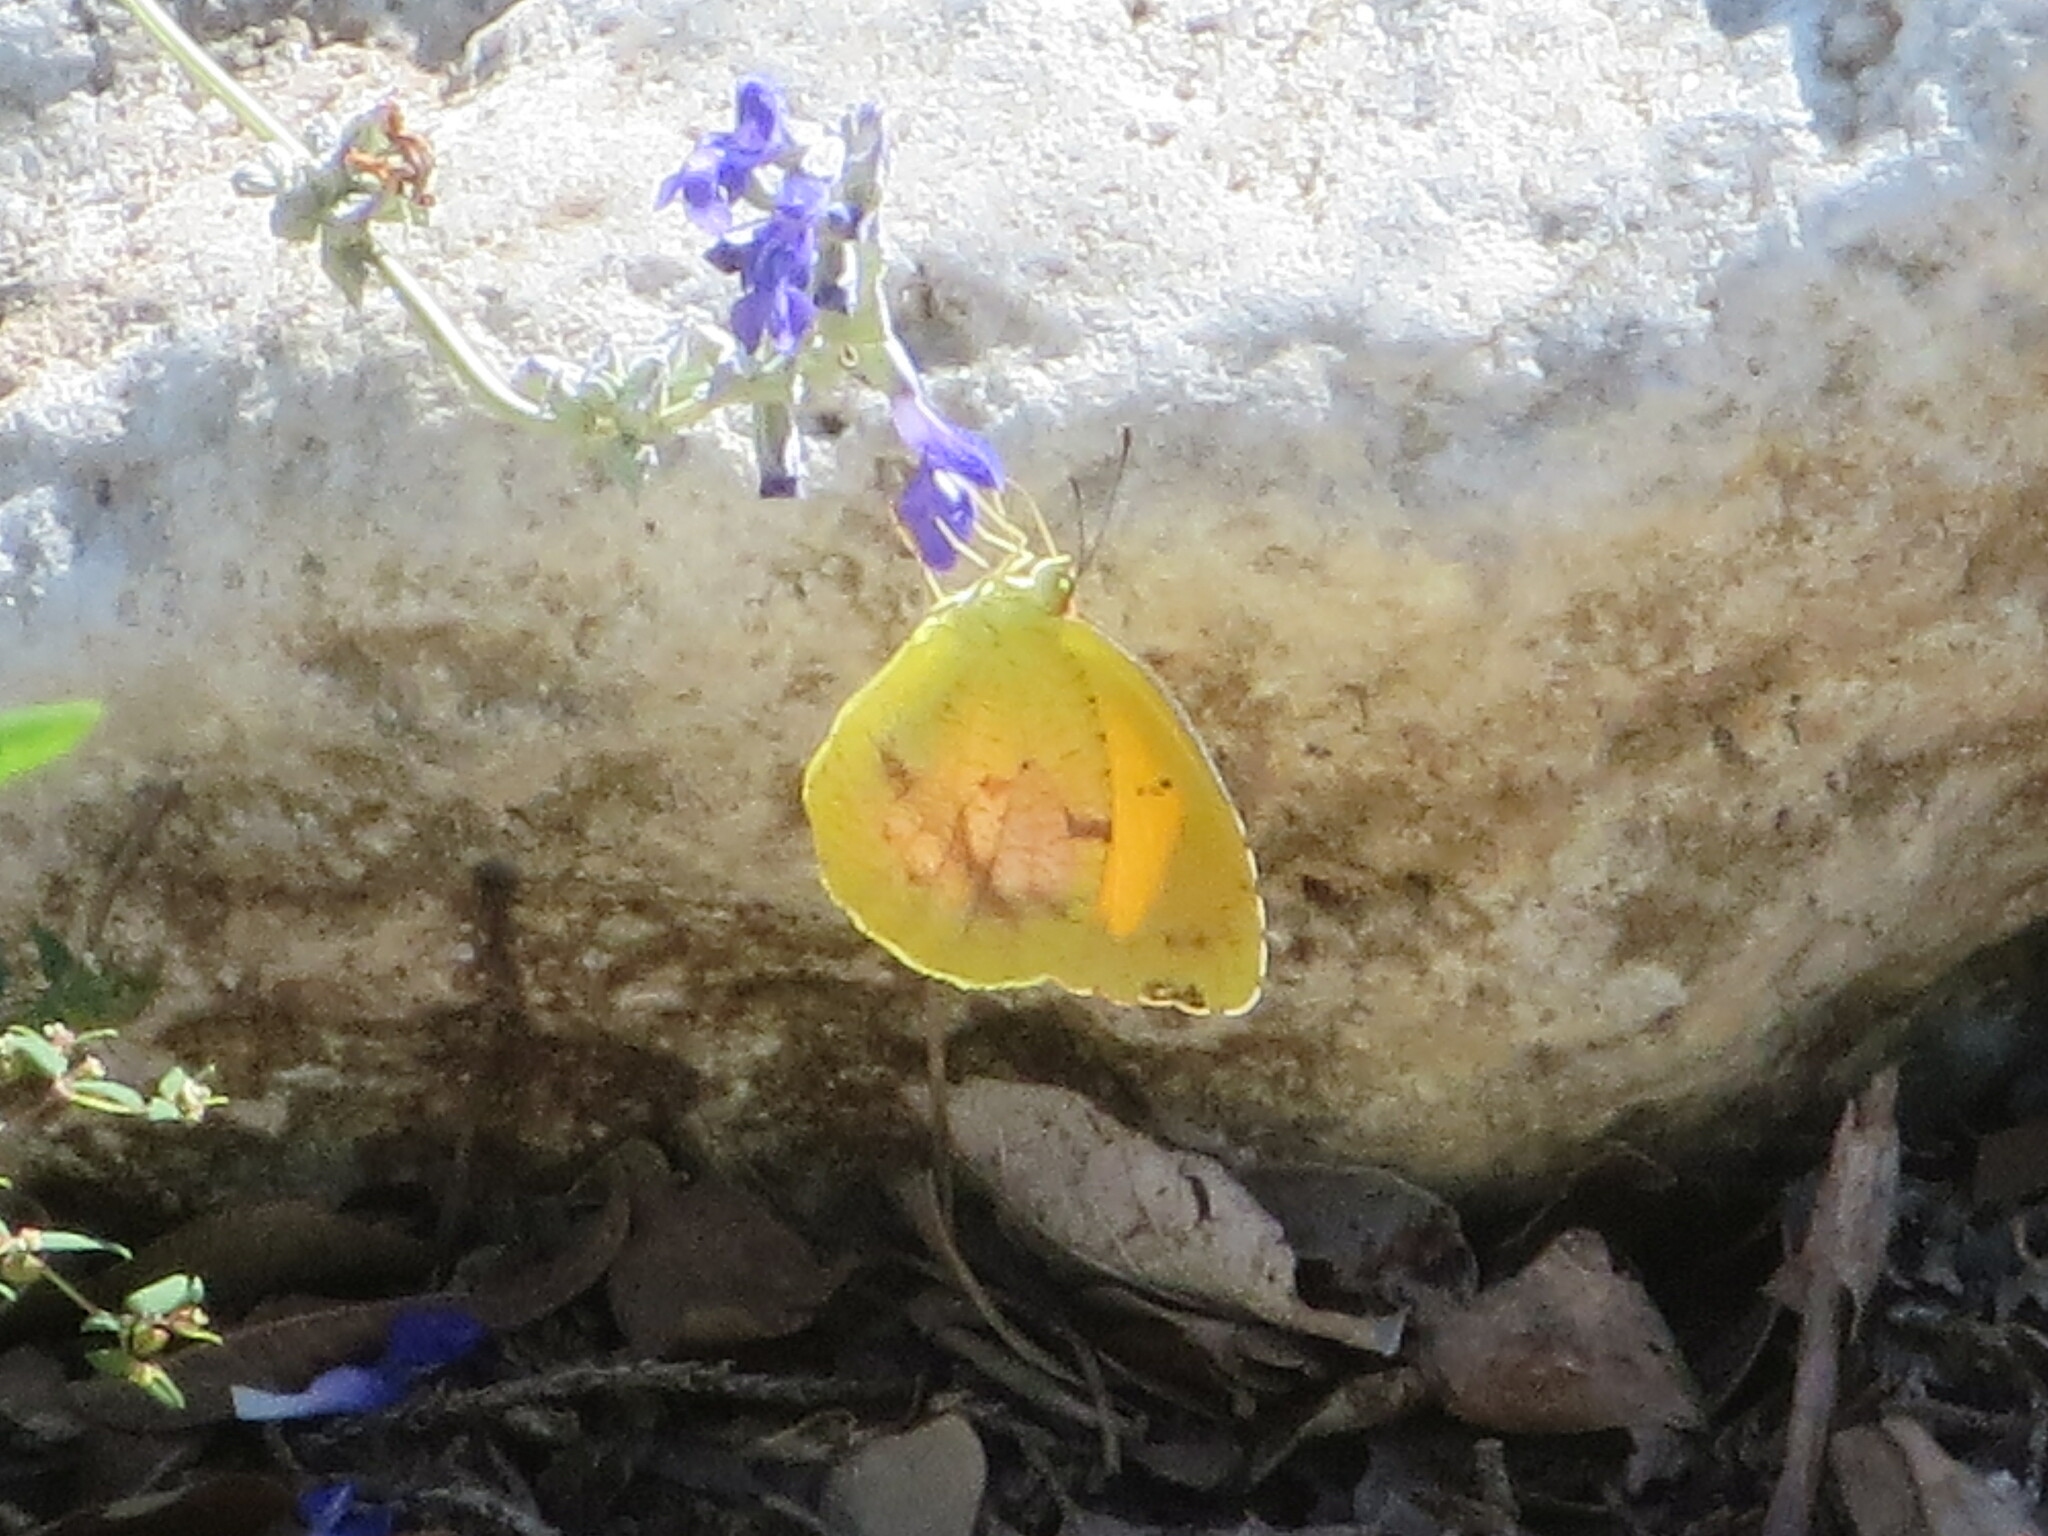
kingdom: Animalia
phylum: Arthropoda
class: Insecta
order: Lepidoptera
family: Pieridae
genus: Abaeis
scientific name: Abaeis nicippe
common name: Sleepy orange
